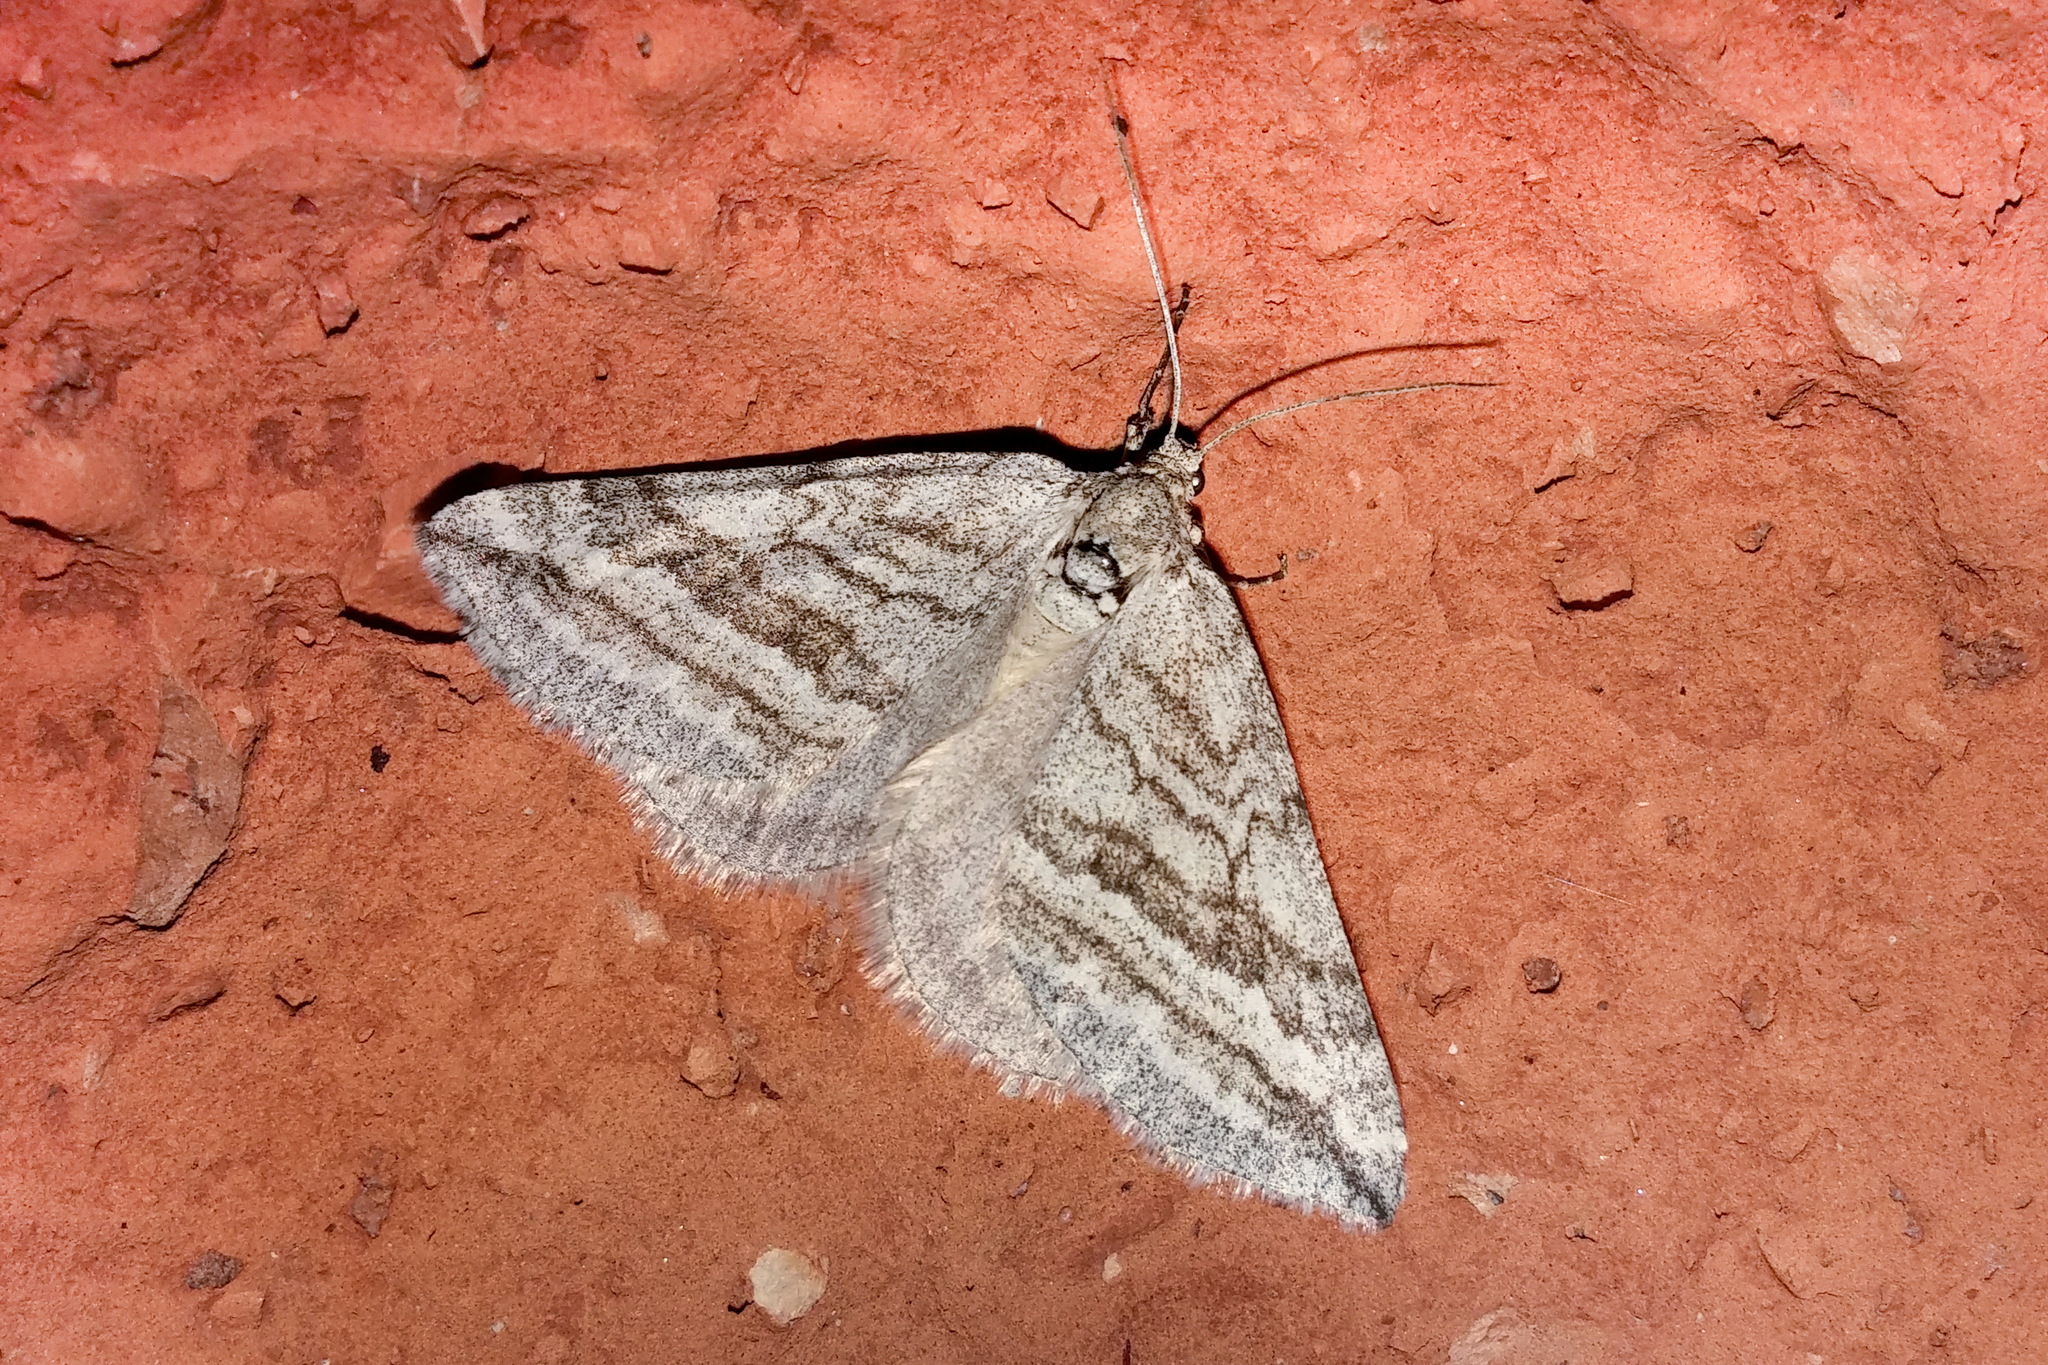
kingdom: Animalia
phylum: Arthropoda
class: Insecta
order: Lepidoptera
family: Geometridae
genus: Lithostege
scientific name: Lithostege coassata
